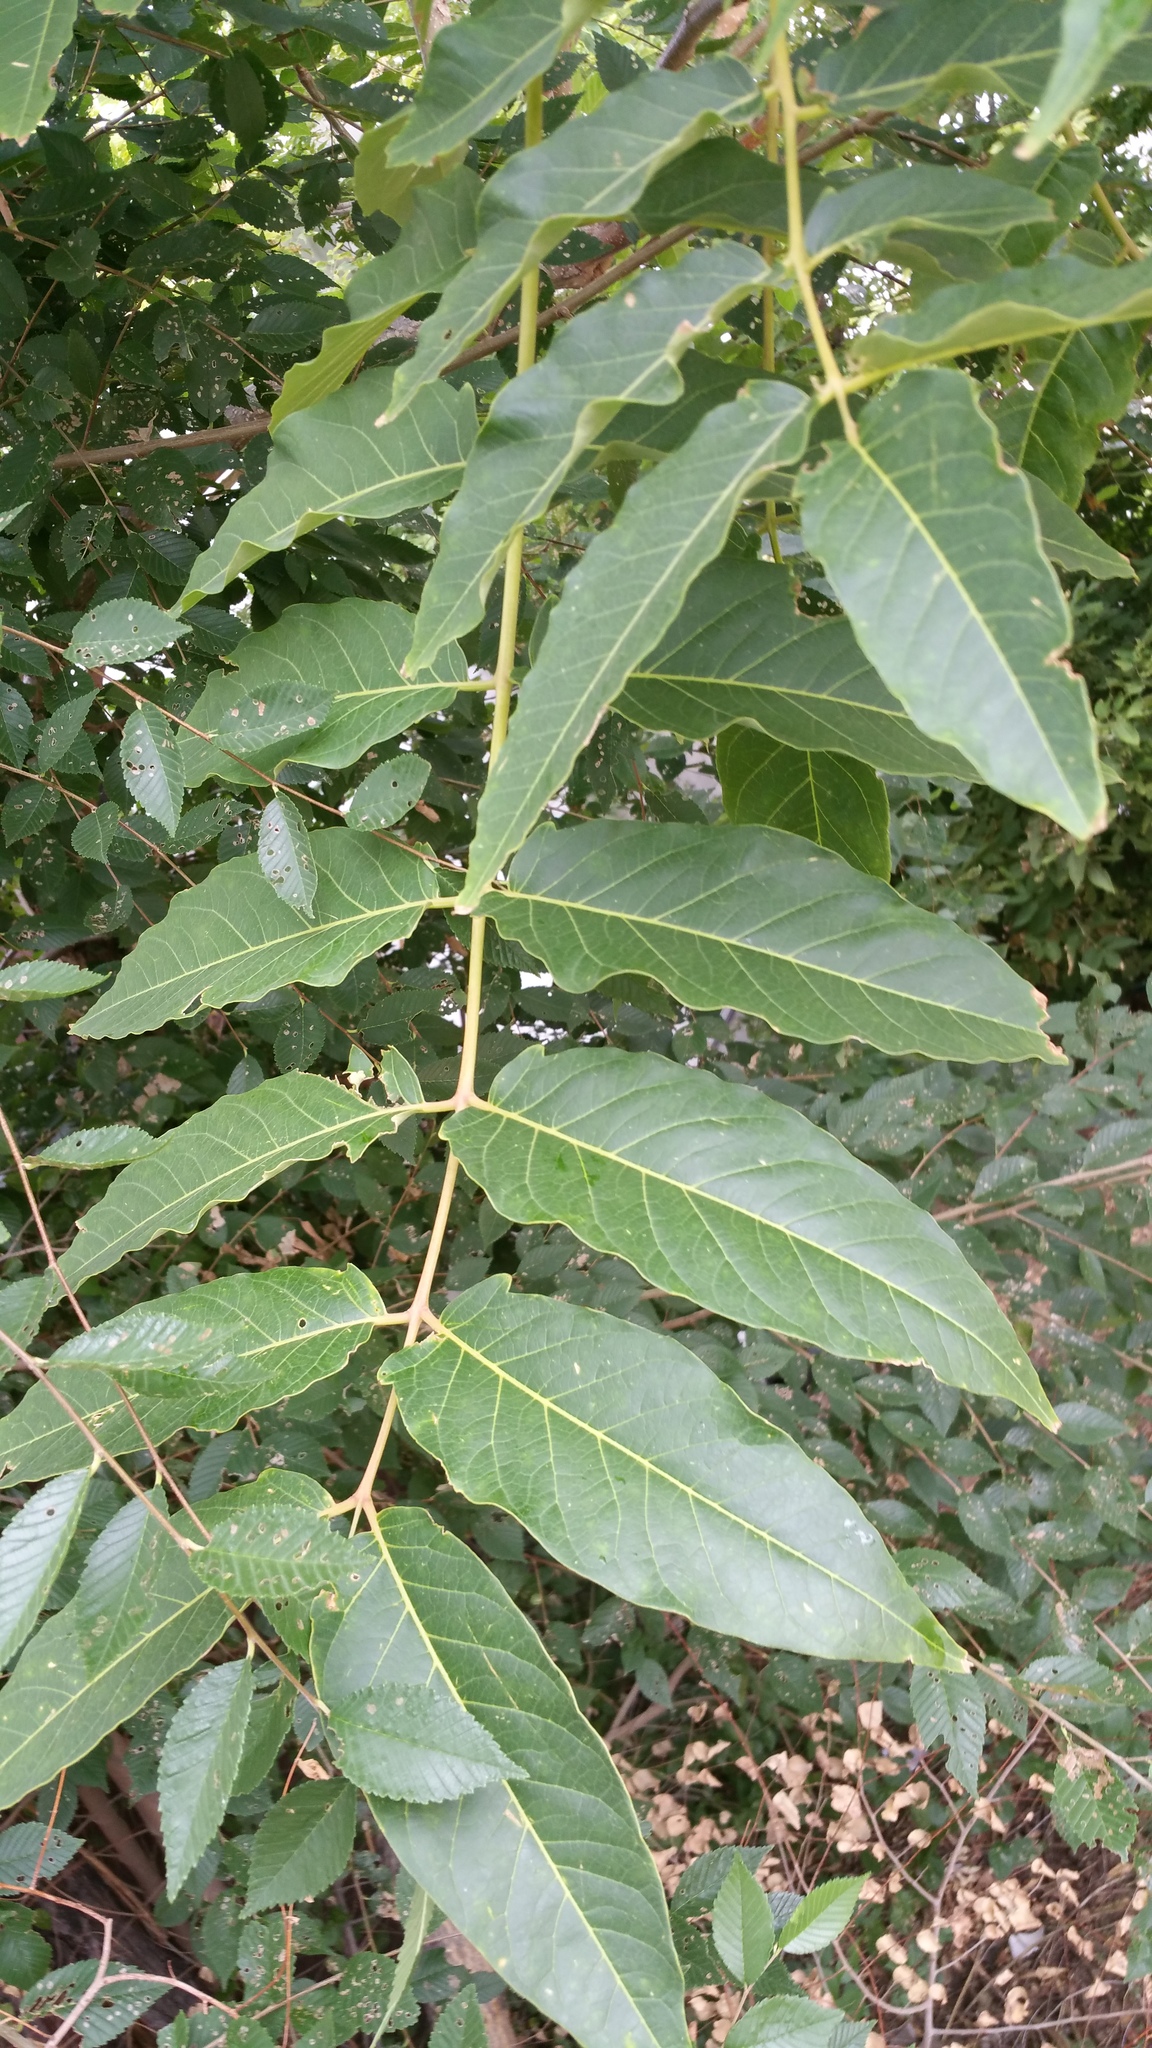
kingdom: Plantae
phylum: Tracheophyta
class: Magnoliopsida
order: Sapindales
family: Simaroubaceae
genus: Ailanthus
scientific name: Ailanthus altissima
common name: Tree-of-heaven
